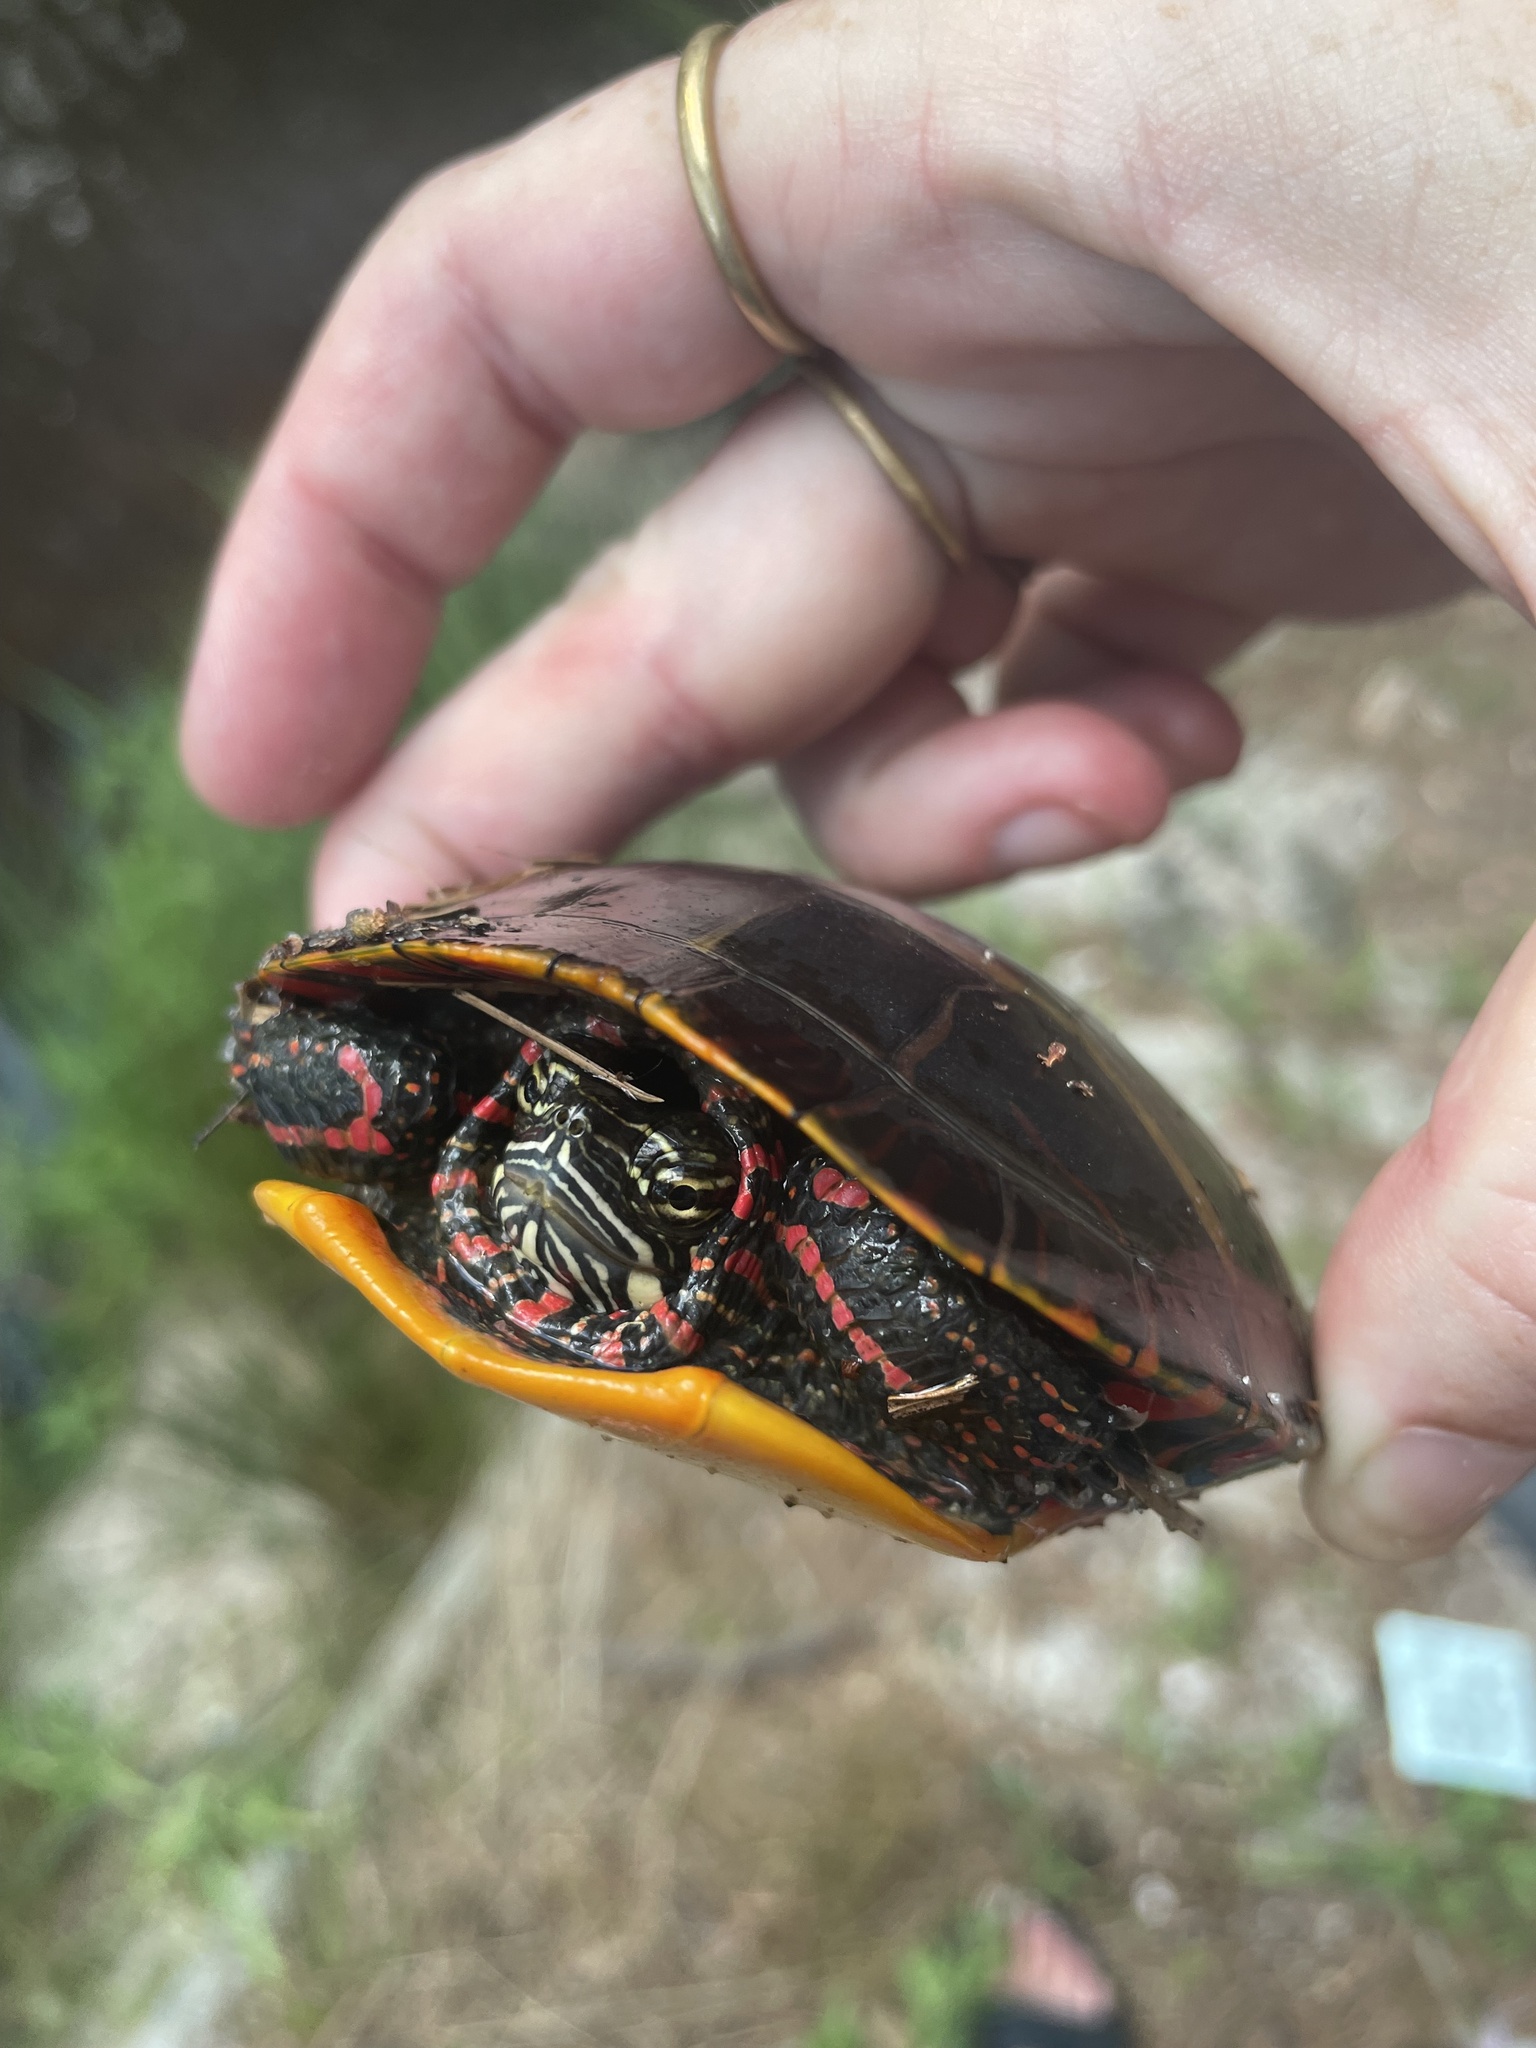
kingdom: Animalia
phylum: Chordata
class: Testudines
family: Emydidae
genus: Chrysemys
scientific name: Chrysemys picta
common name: Painted turtle
